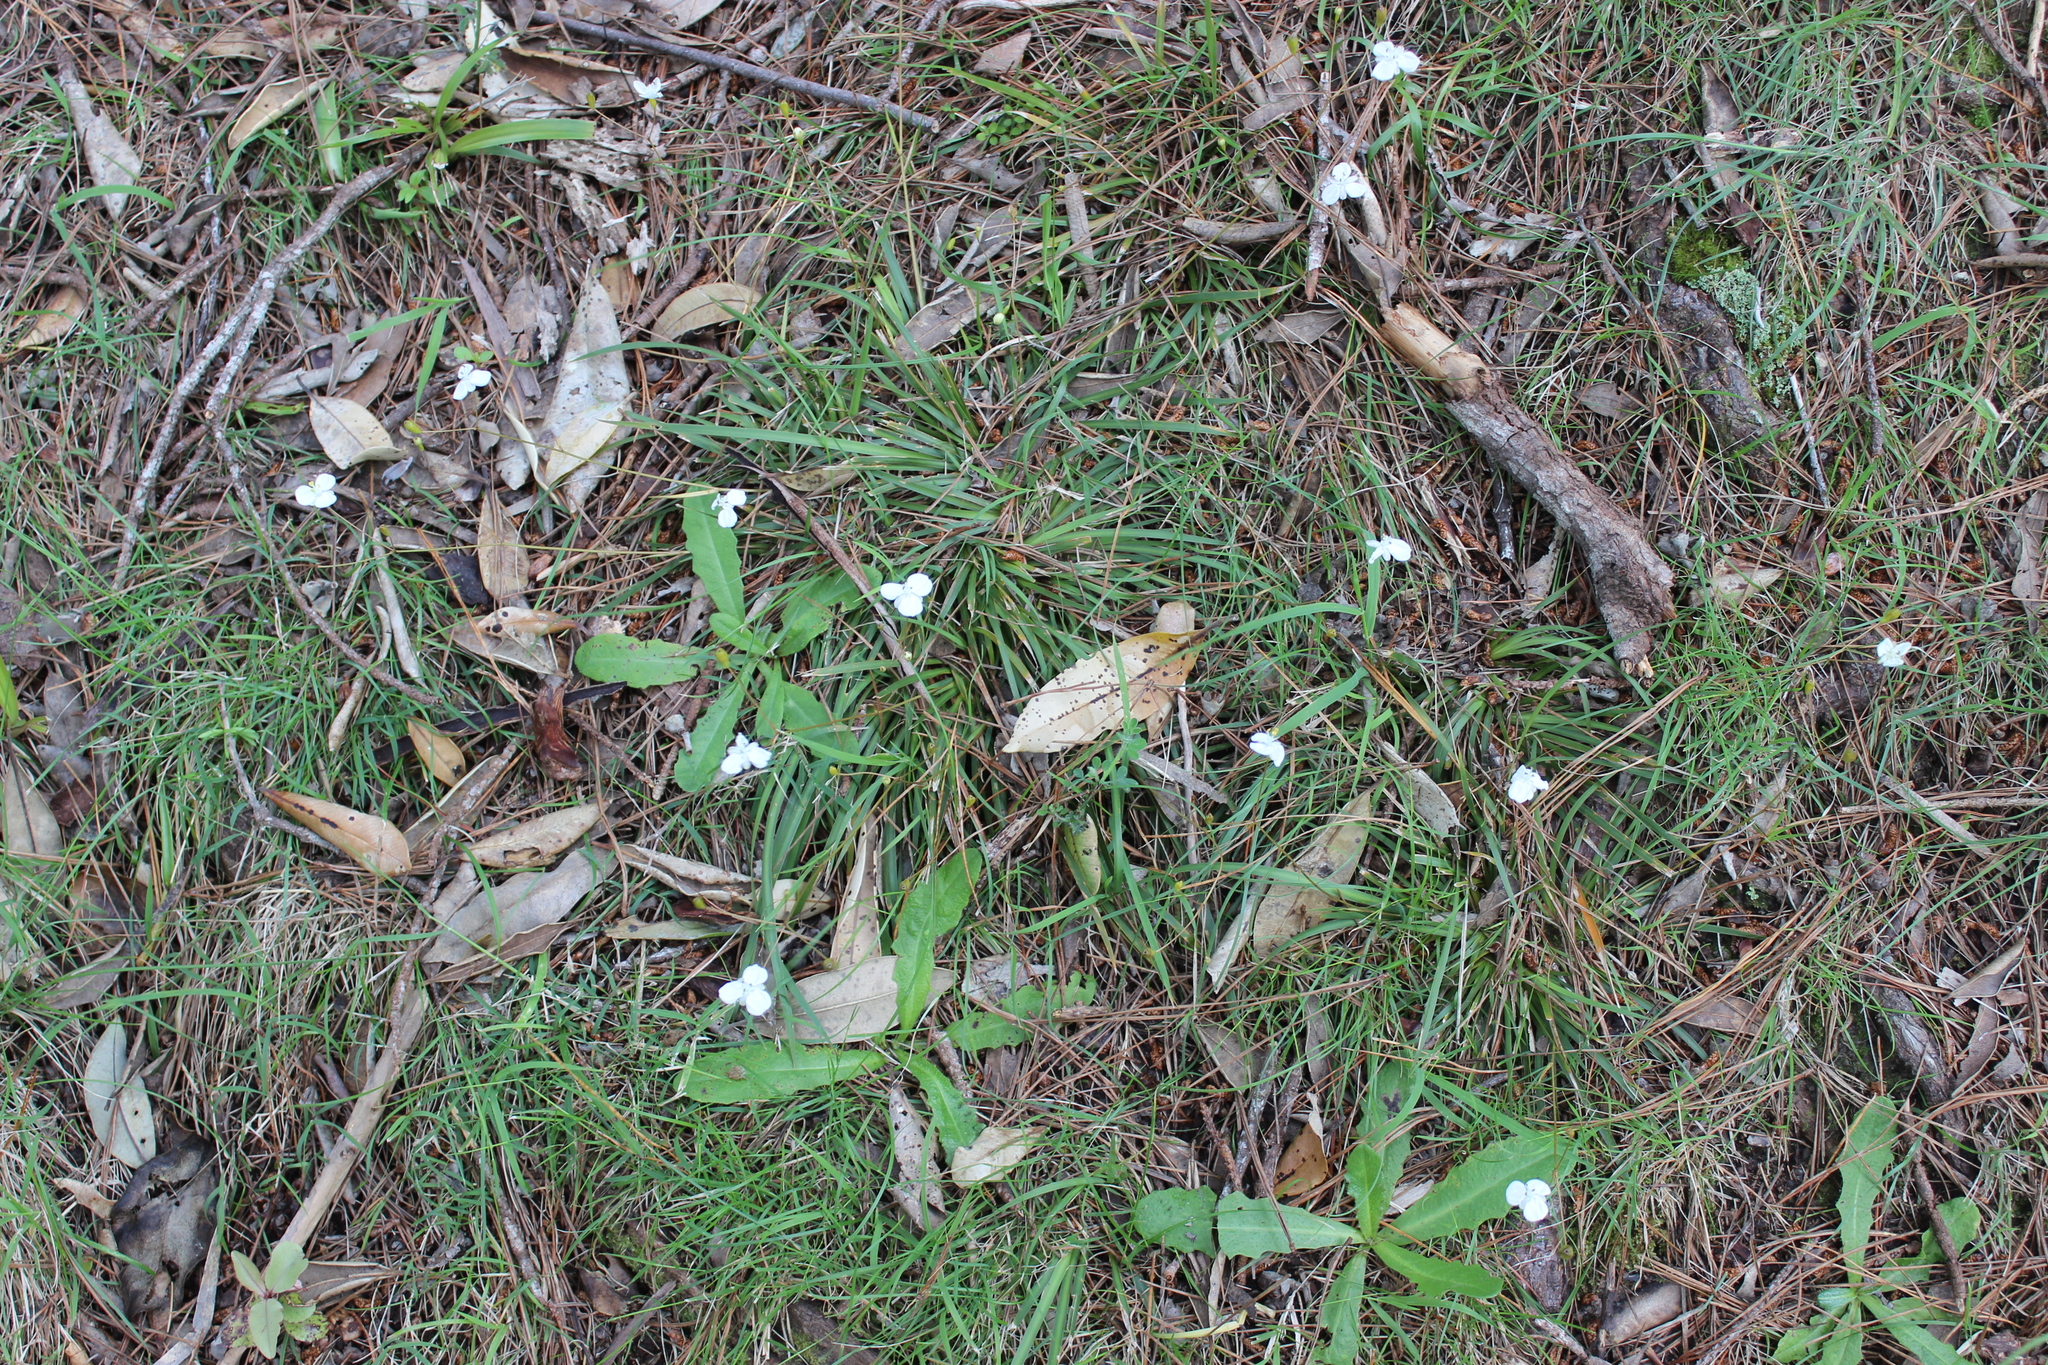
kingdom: Plantae
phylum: Tracheophyta
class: Liliopsida
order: Asparagales
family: Iridaceae
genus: Libertia
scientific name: Libertia grandiflora
